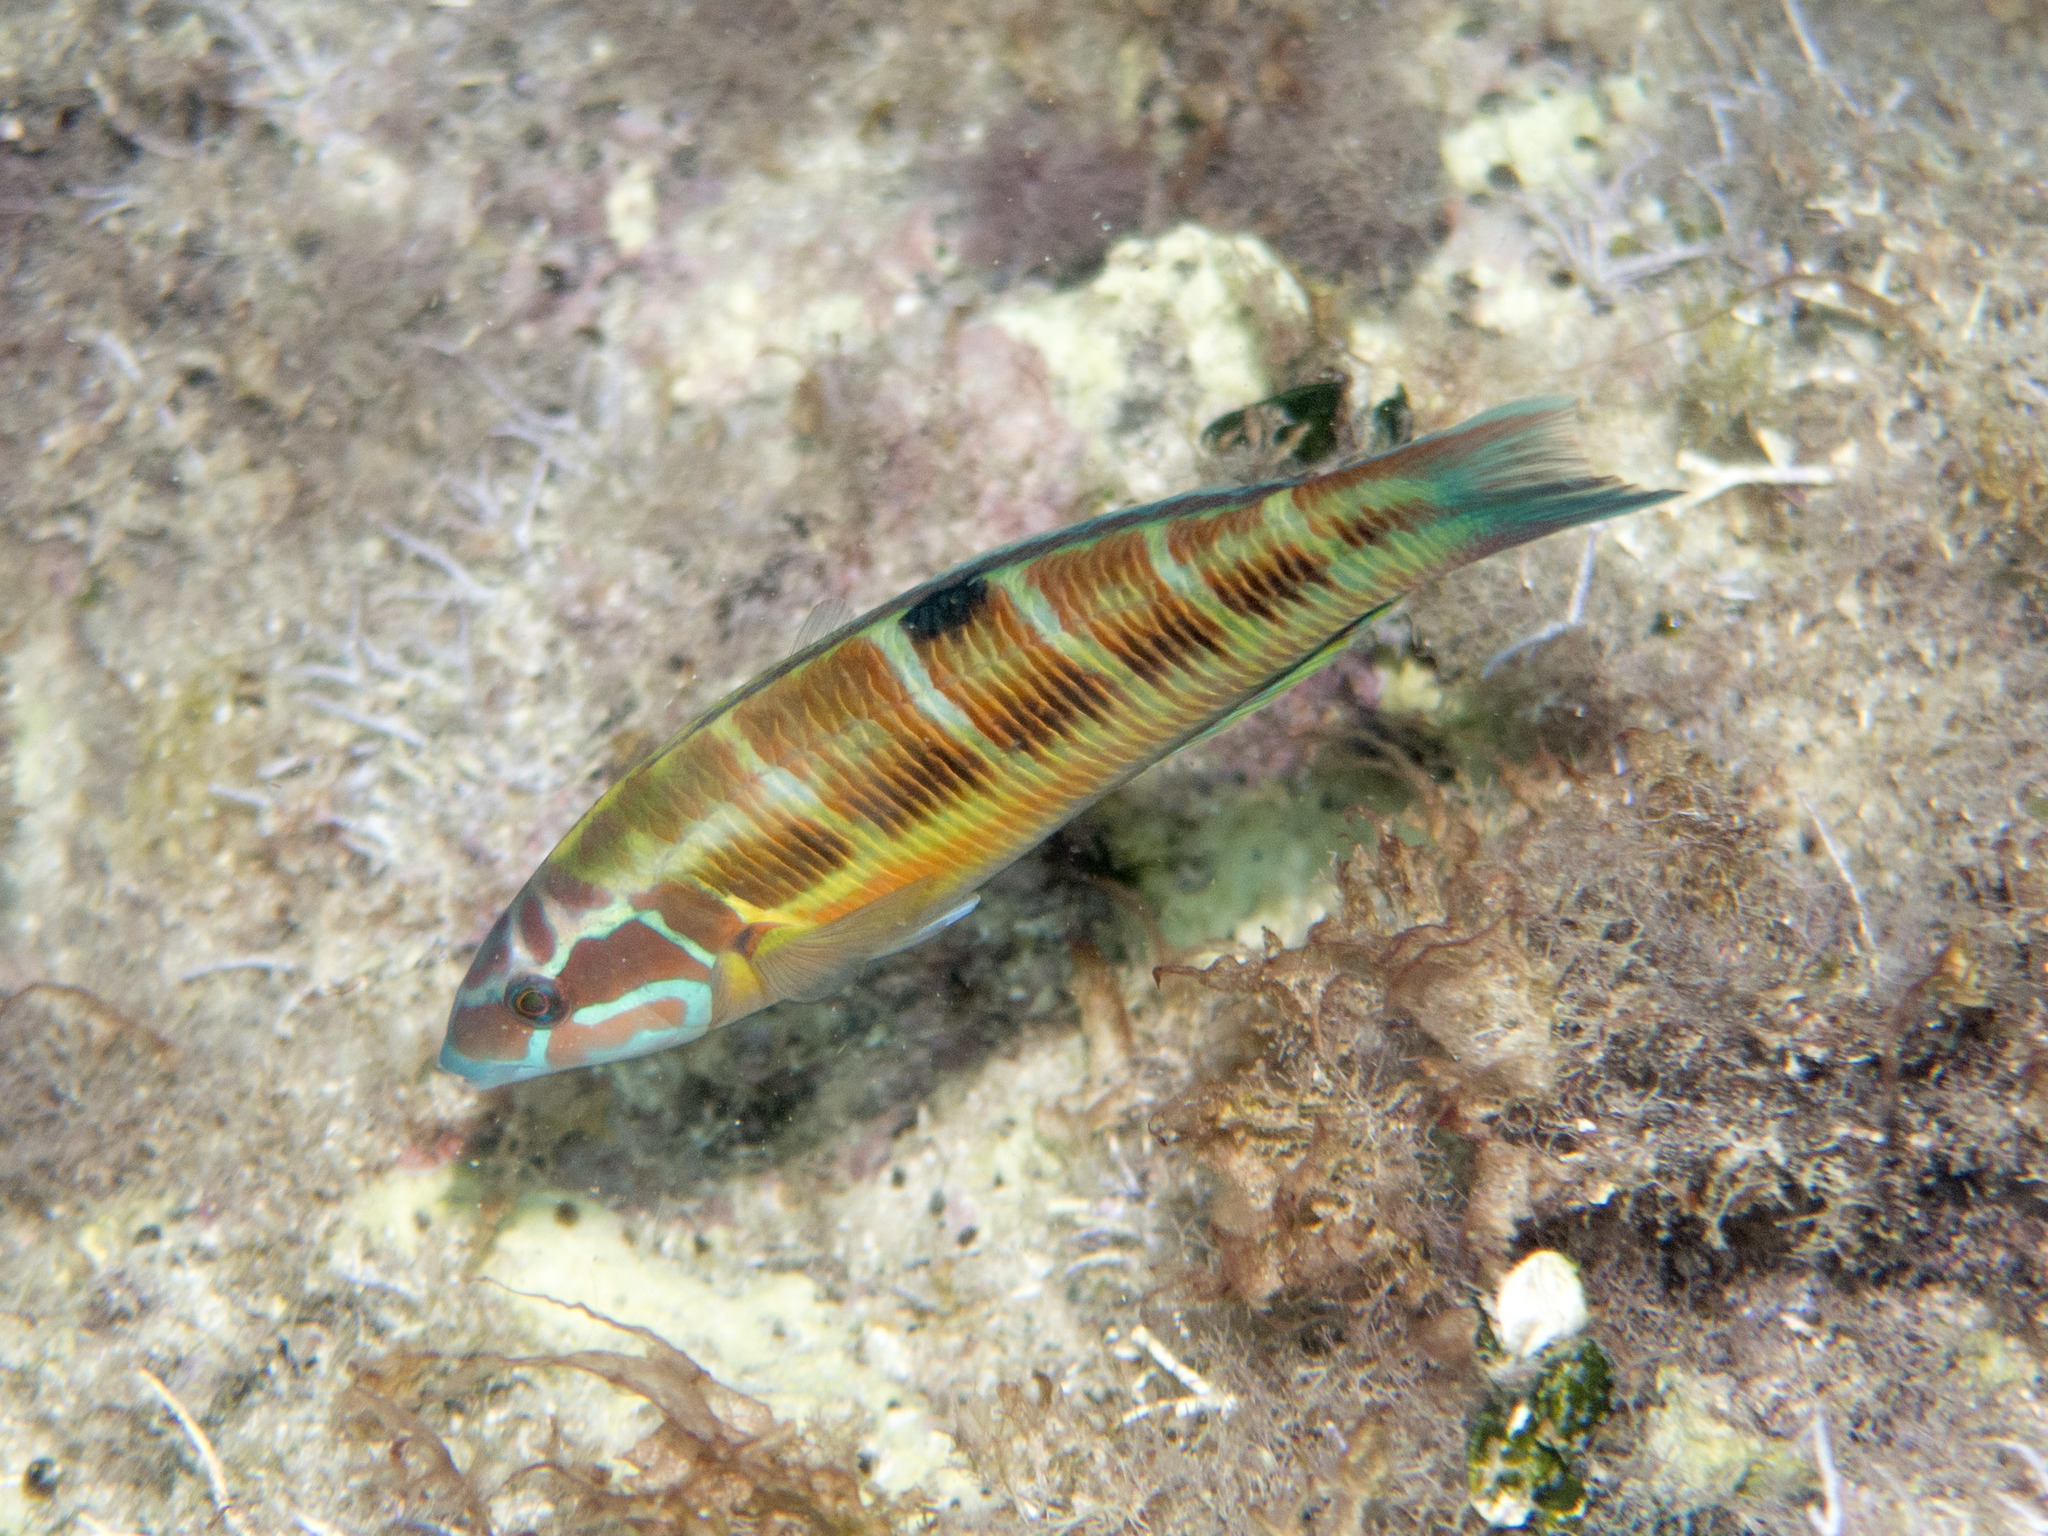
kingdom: Animalia
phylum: Chordata
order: Perciformes
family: Labridae
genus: Thalassoma
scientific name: Thalassoma pavo
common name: Ornate wrasse
